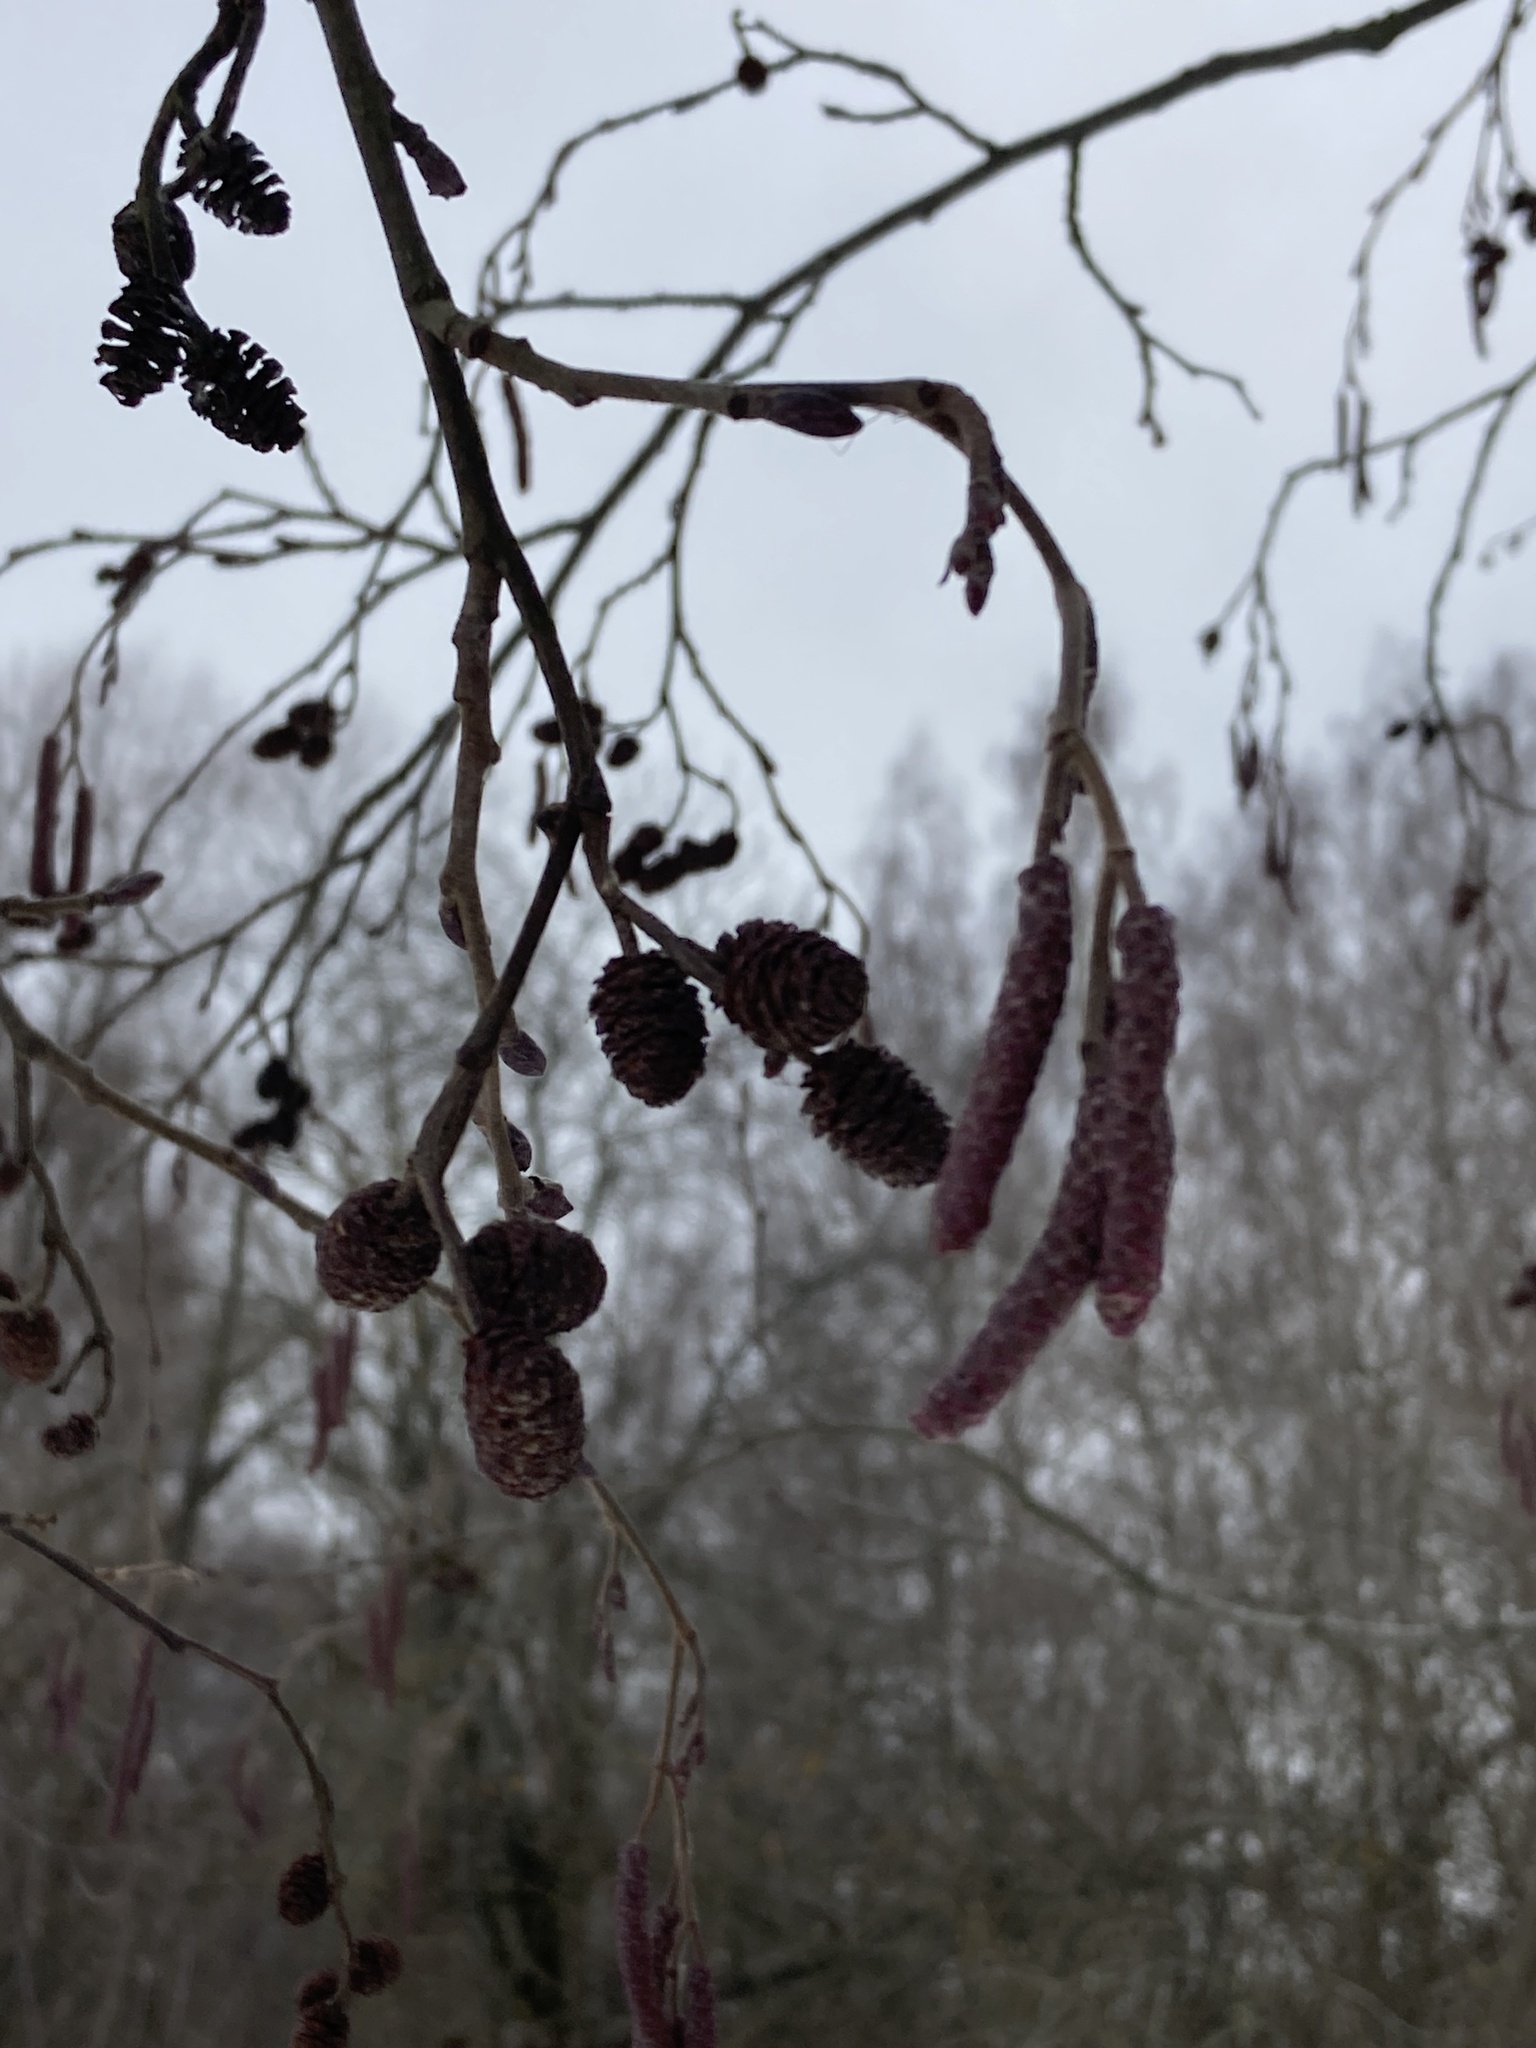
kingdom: Plantae
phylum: Tracheophyta
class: Magnoliopsida
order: Fagales
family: Betulaceae
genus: Alnus
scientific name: Alnus glutinosa
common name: Black alder
